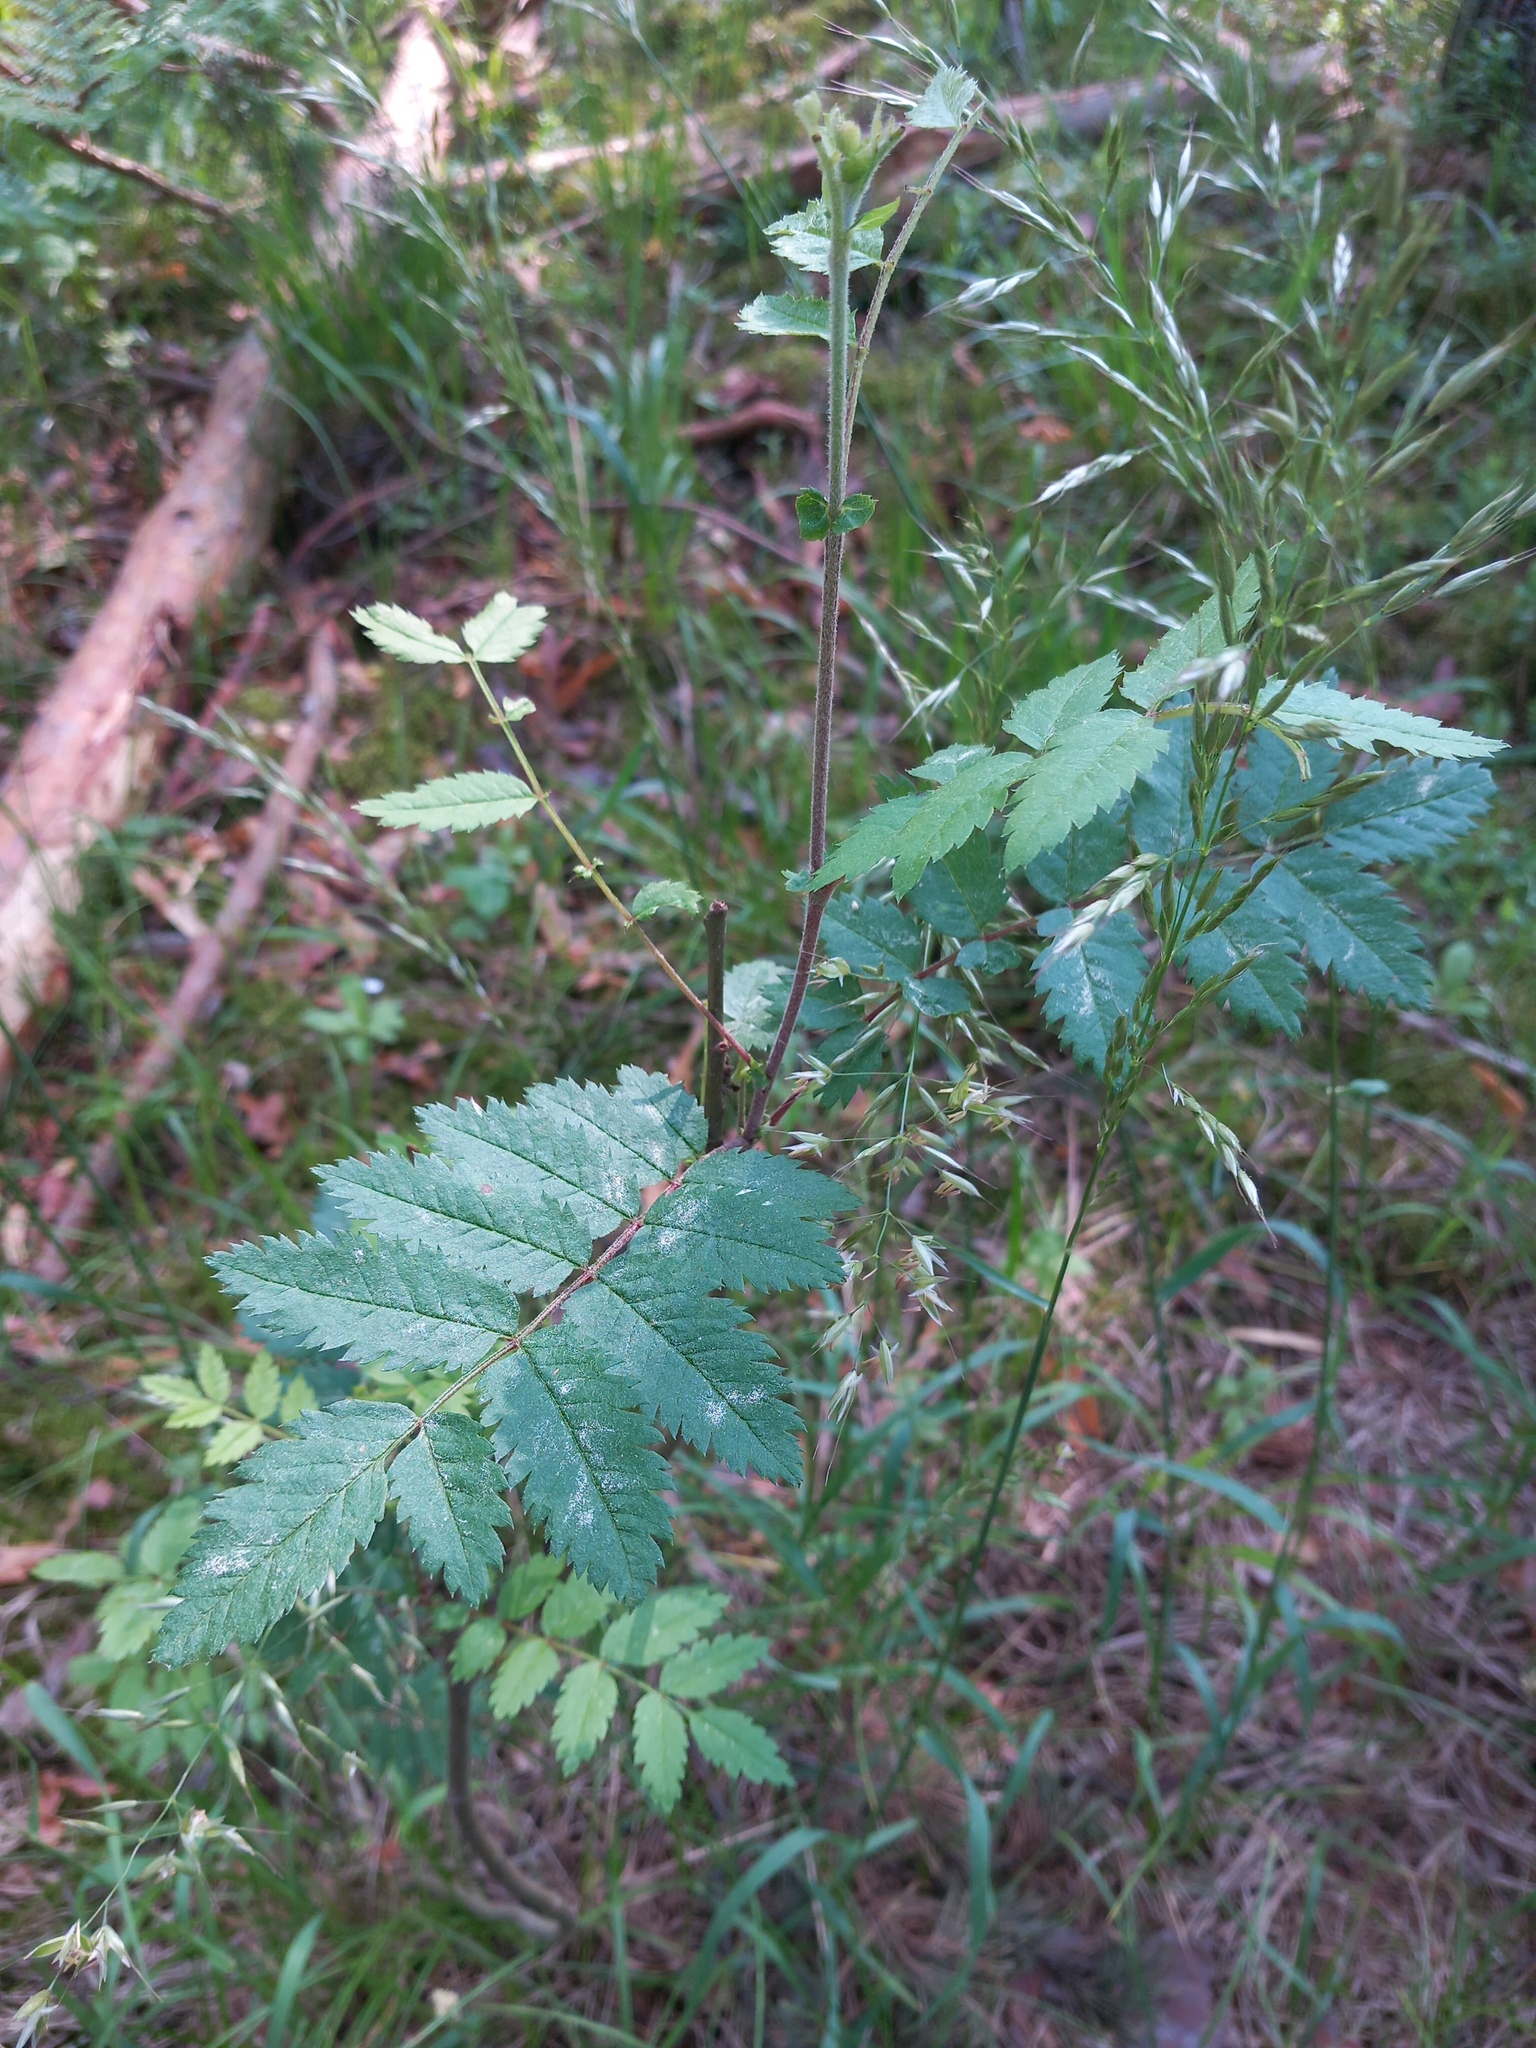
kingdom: Plantae
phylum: Tracheophyta
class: Magnoliopsida
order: Rosales
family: Rosaceae
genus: Sorbus
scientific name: Sorbus aucuparia
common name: Rowan
